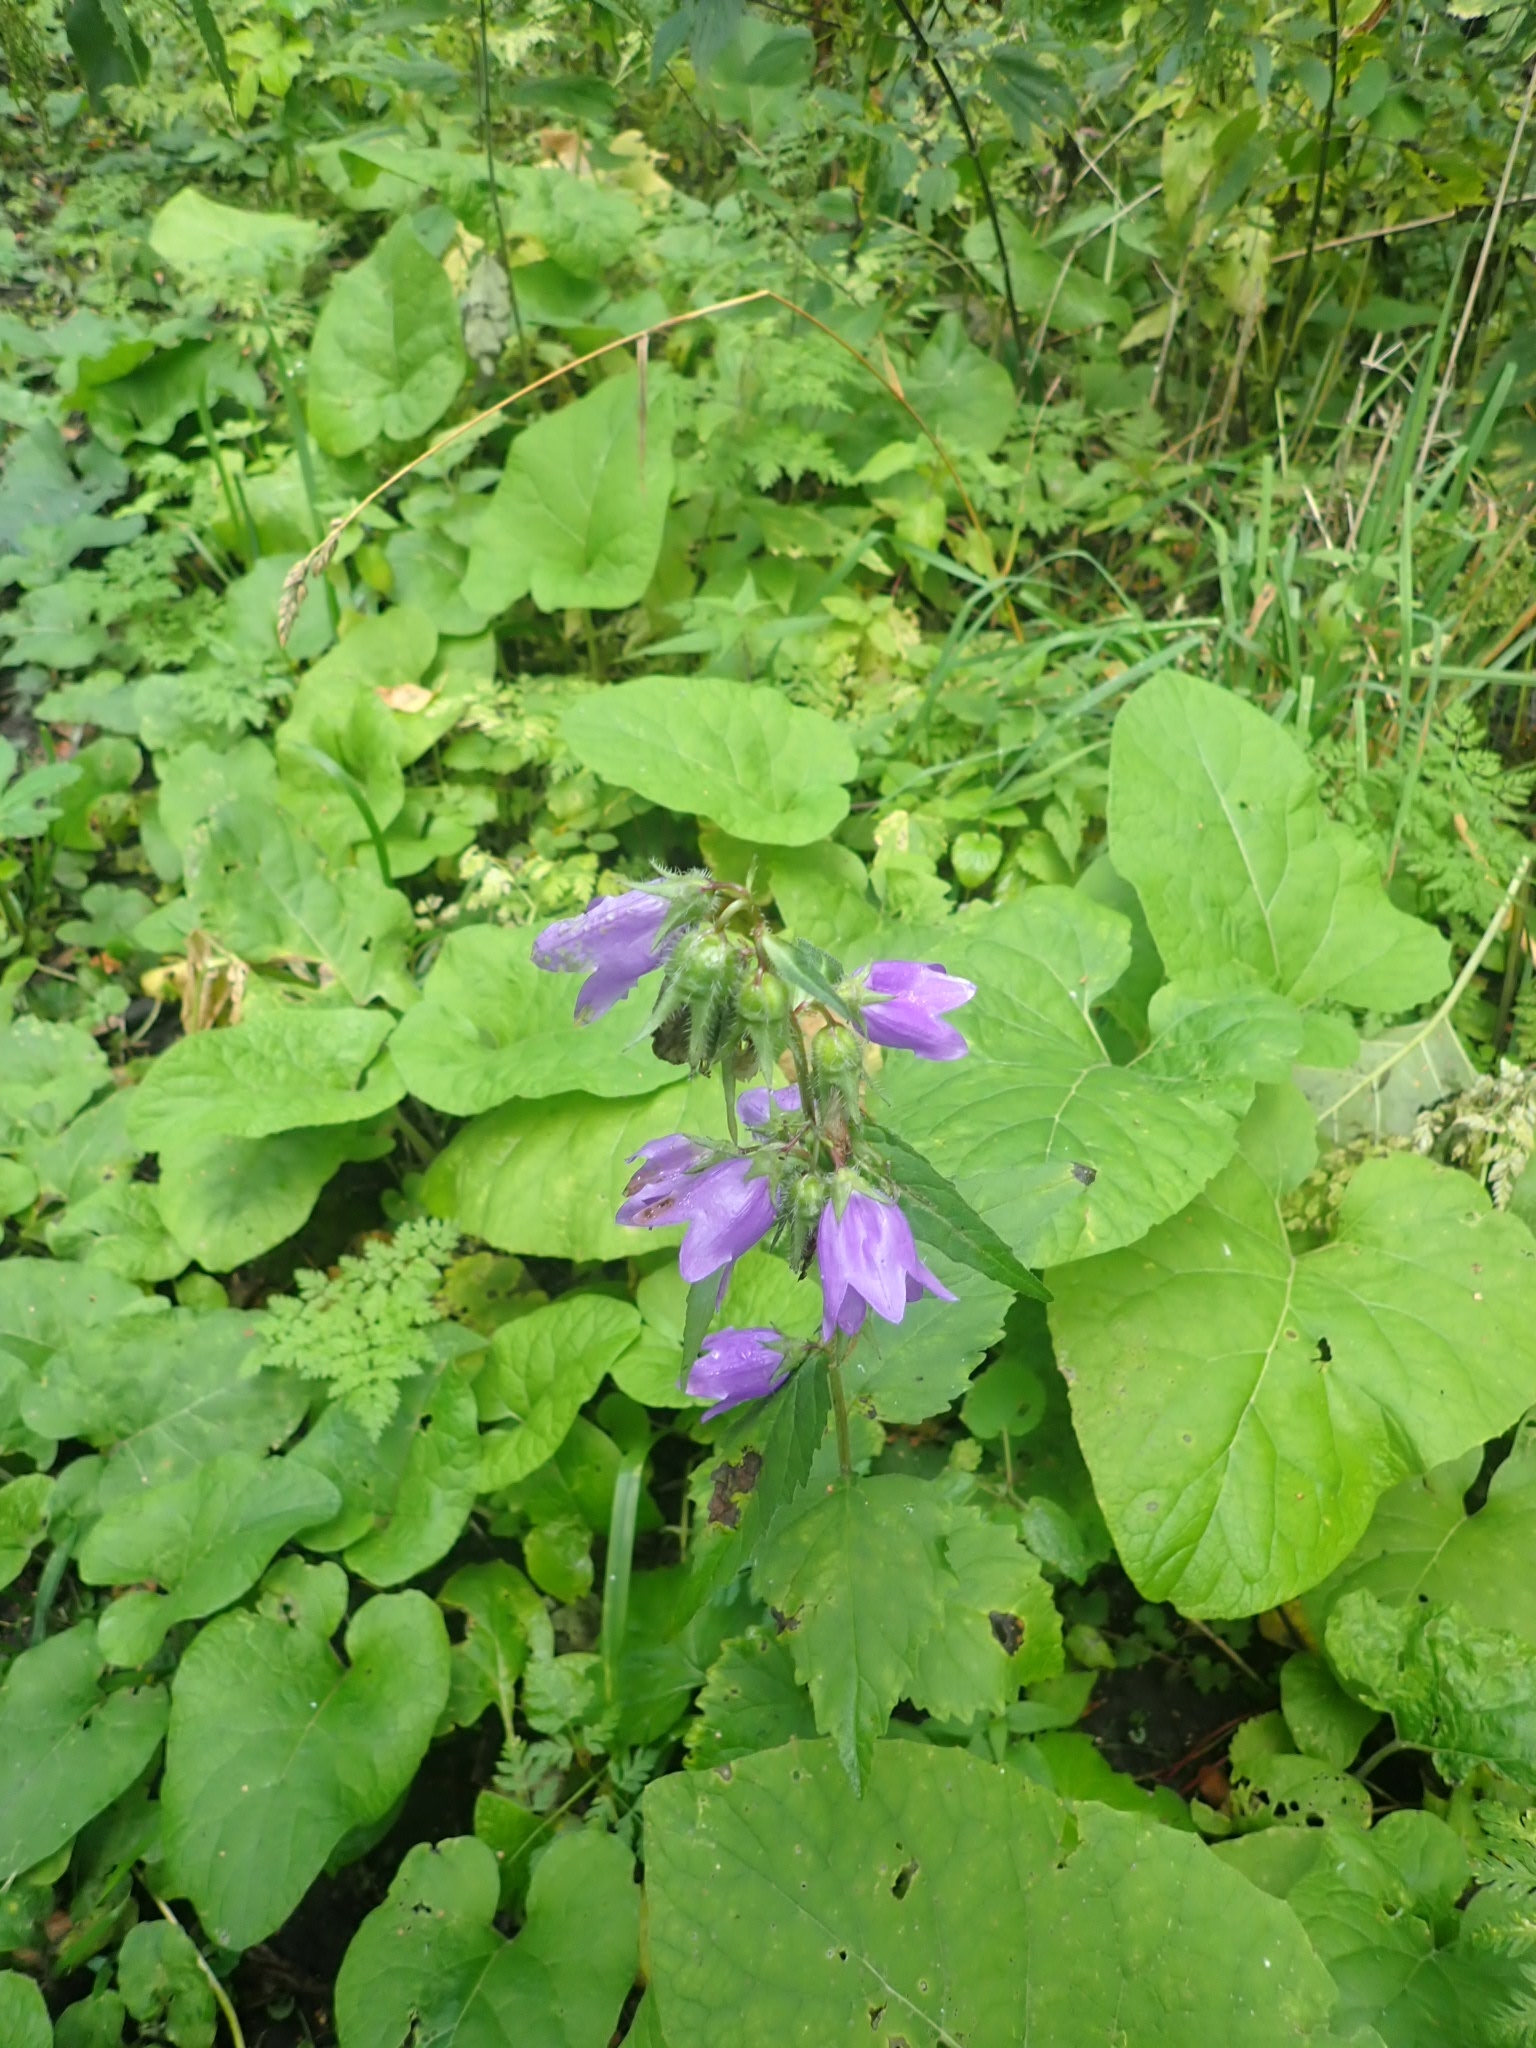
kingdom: Plantae
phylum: Tracheophyta
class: Magnoliopsida
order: Asterales
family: Campanulaceae
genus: Campanula
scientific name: Campanula trachelium
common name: Nettle-leaved bellflower
